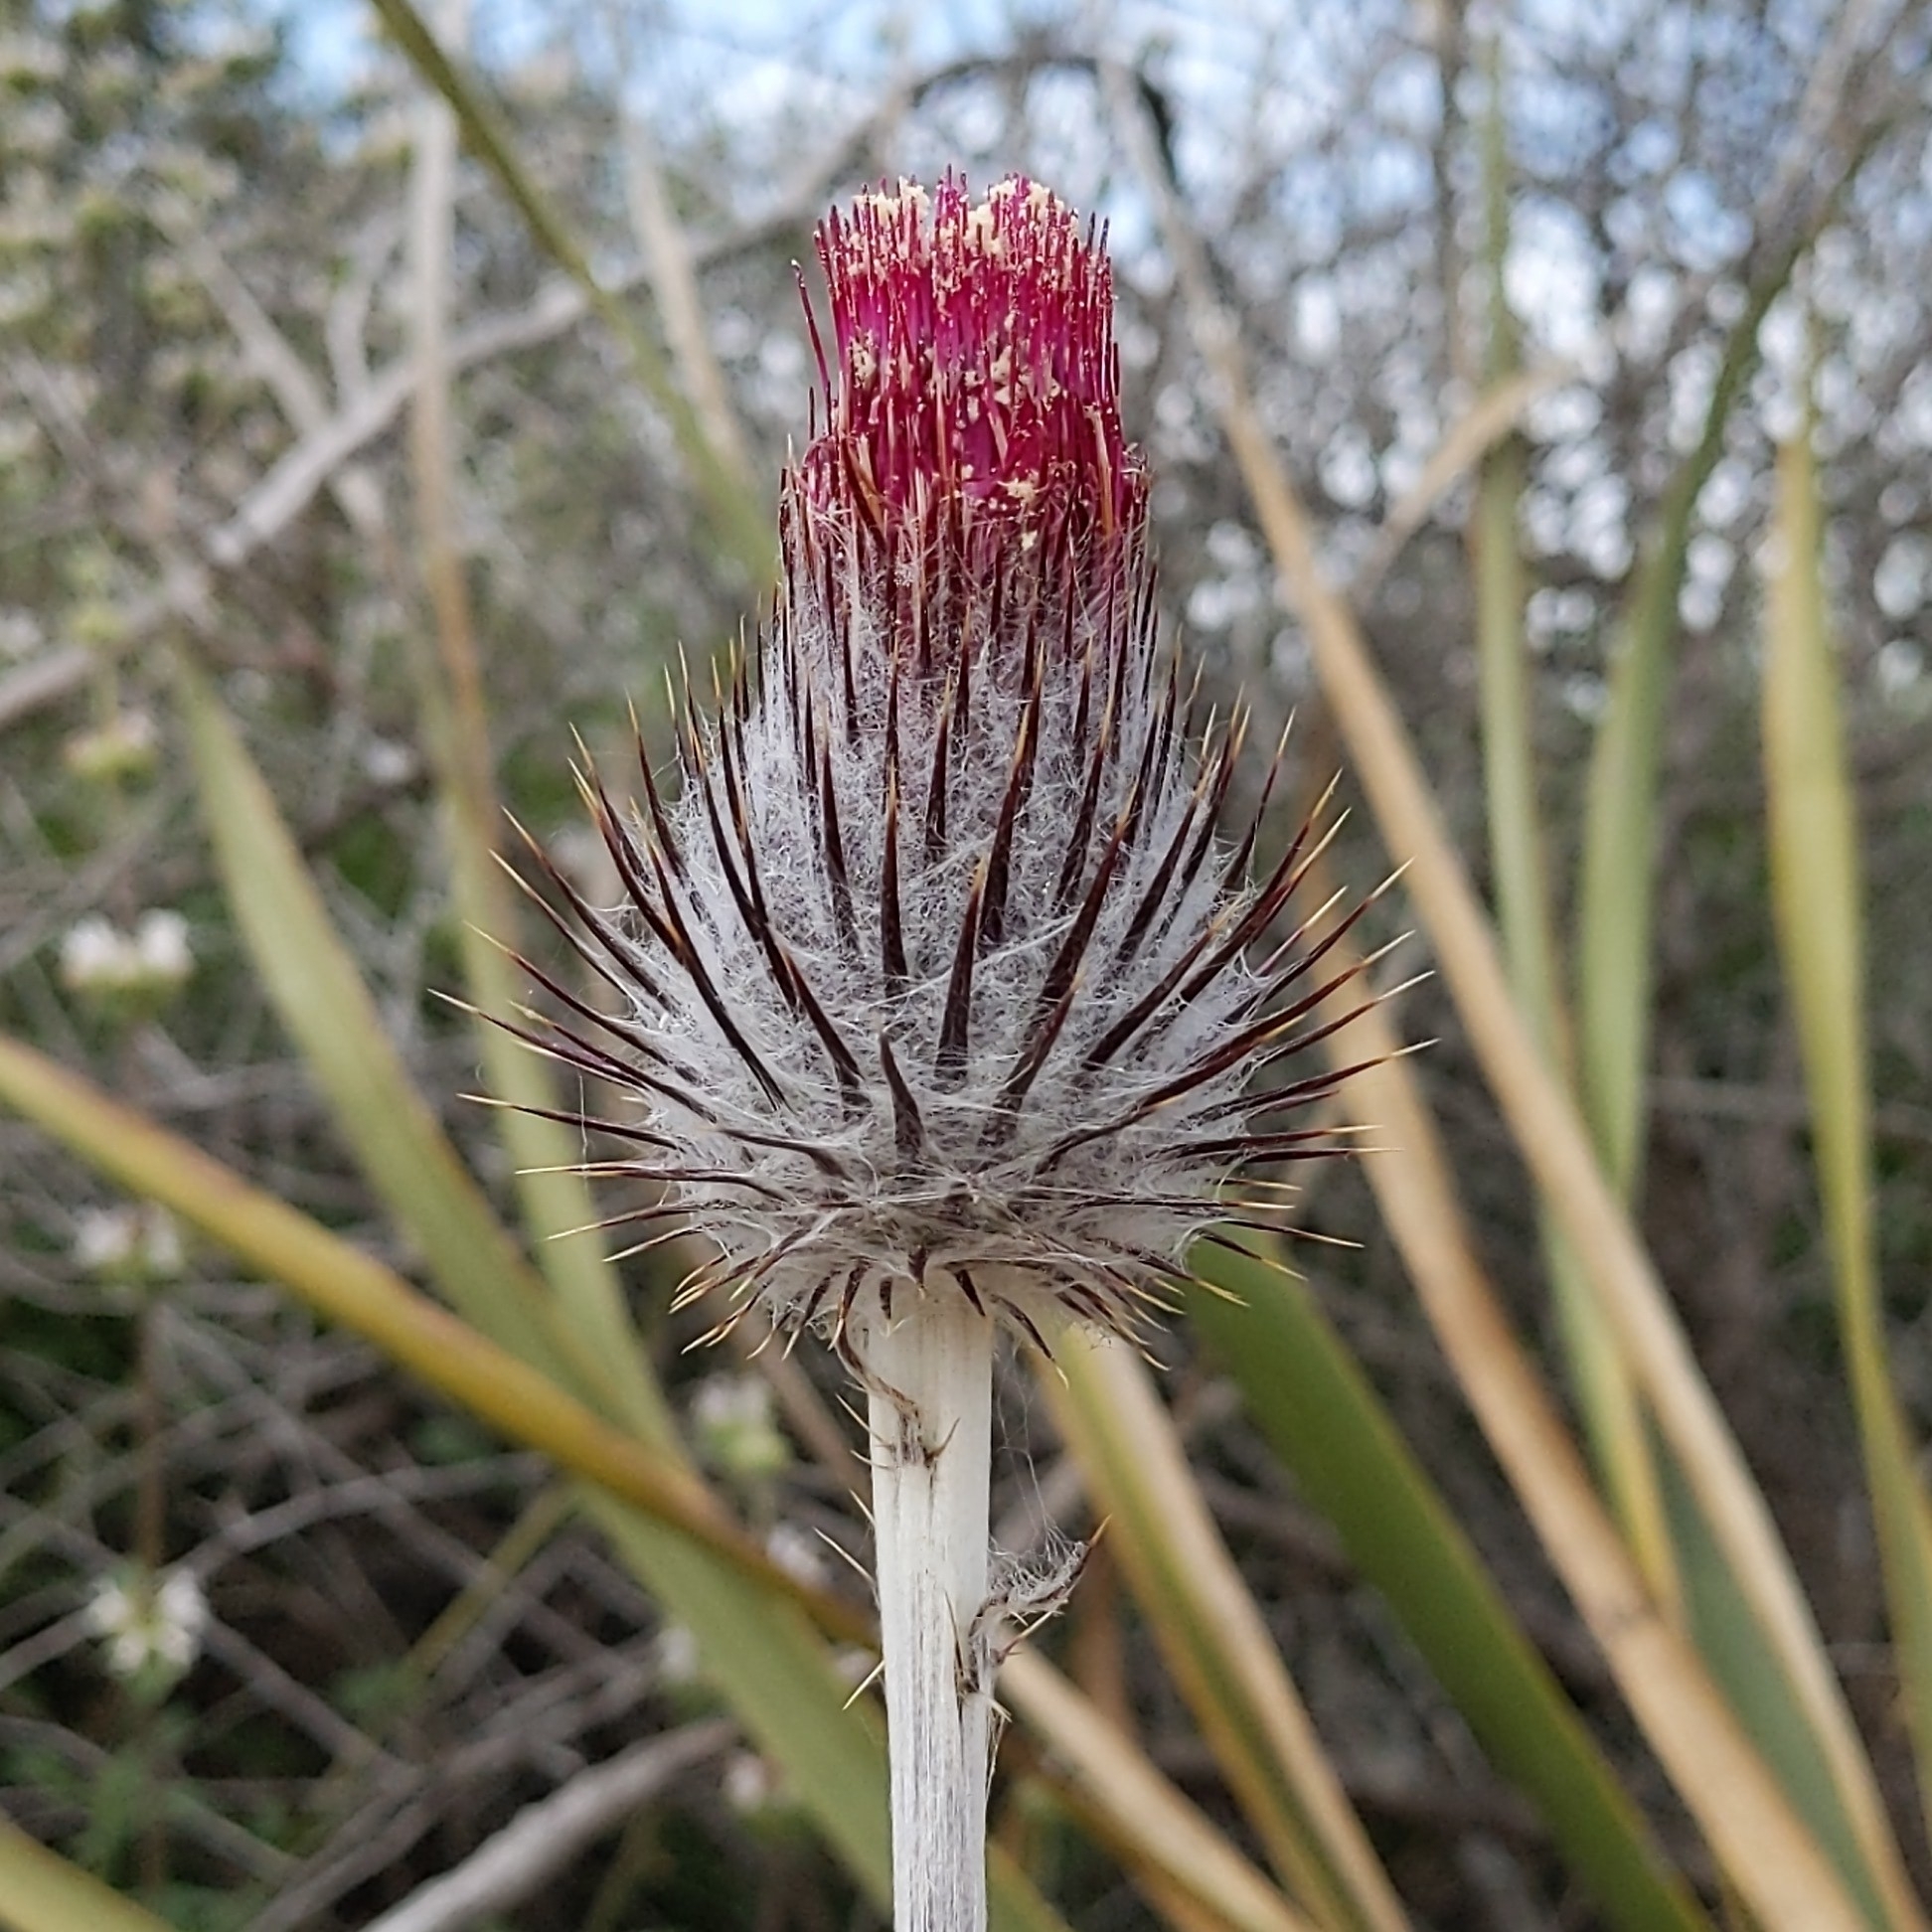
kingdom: Plantae
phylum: Tracheophyta
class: Magnoliopsida
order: Asterales
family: Asteraceae
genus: Cirsium
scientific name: Cirsium occidentale
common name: Western thistle
